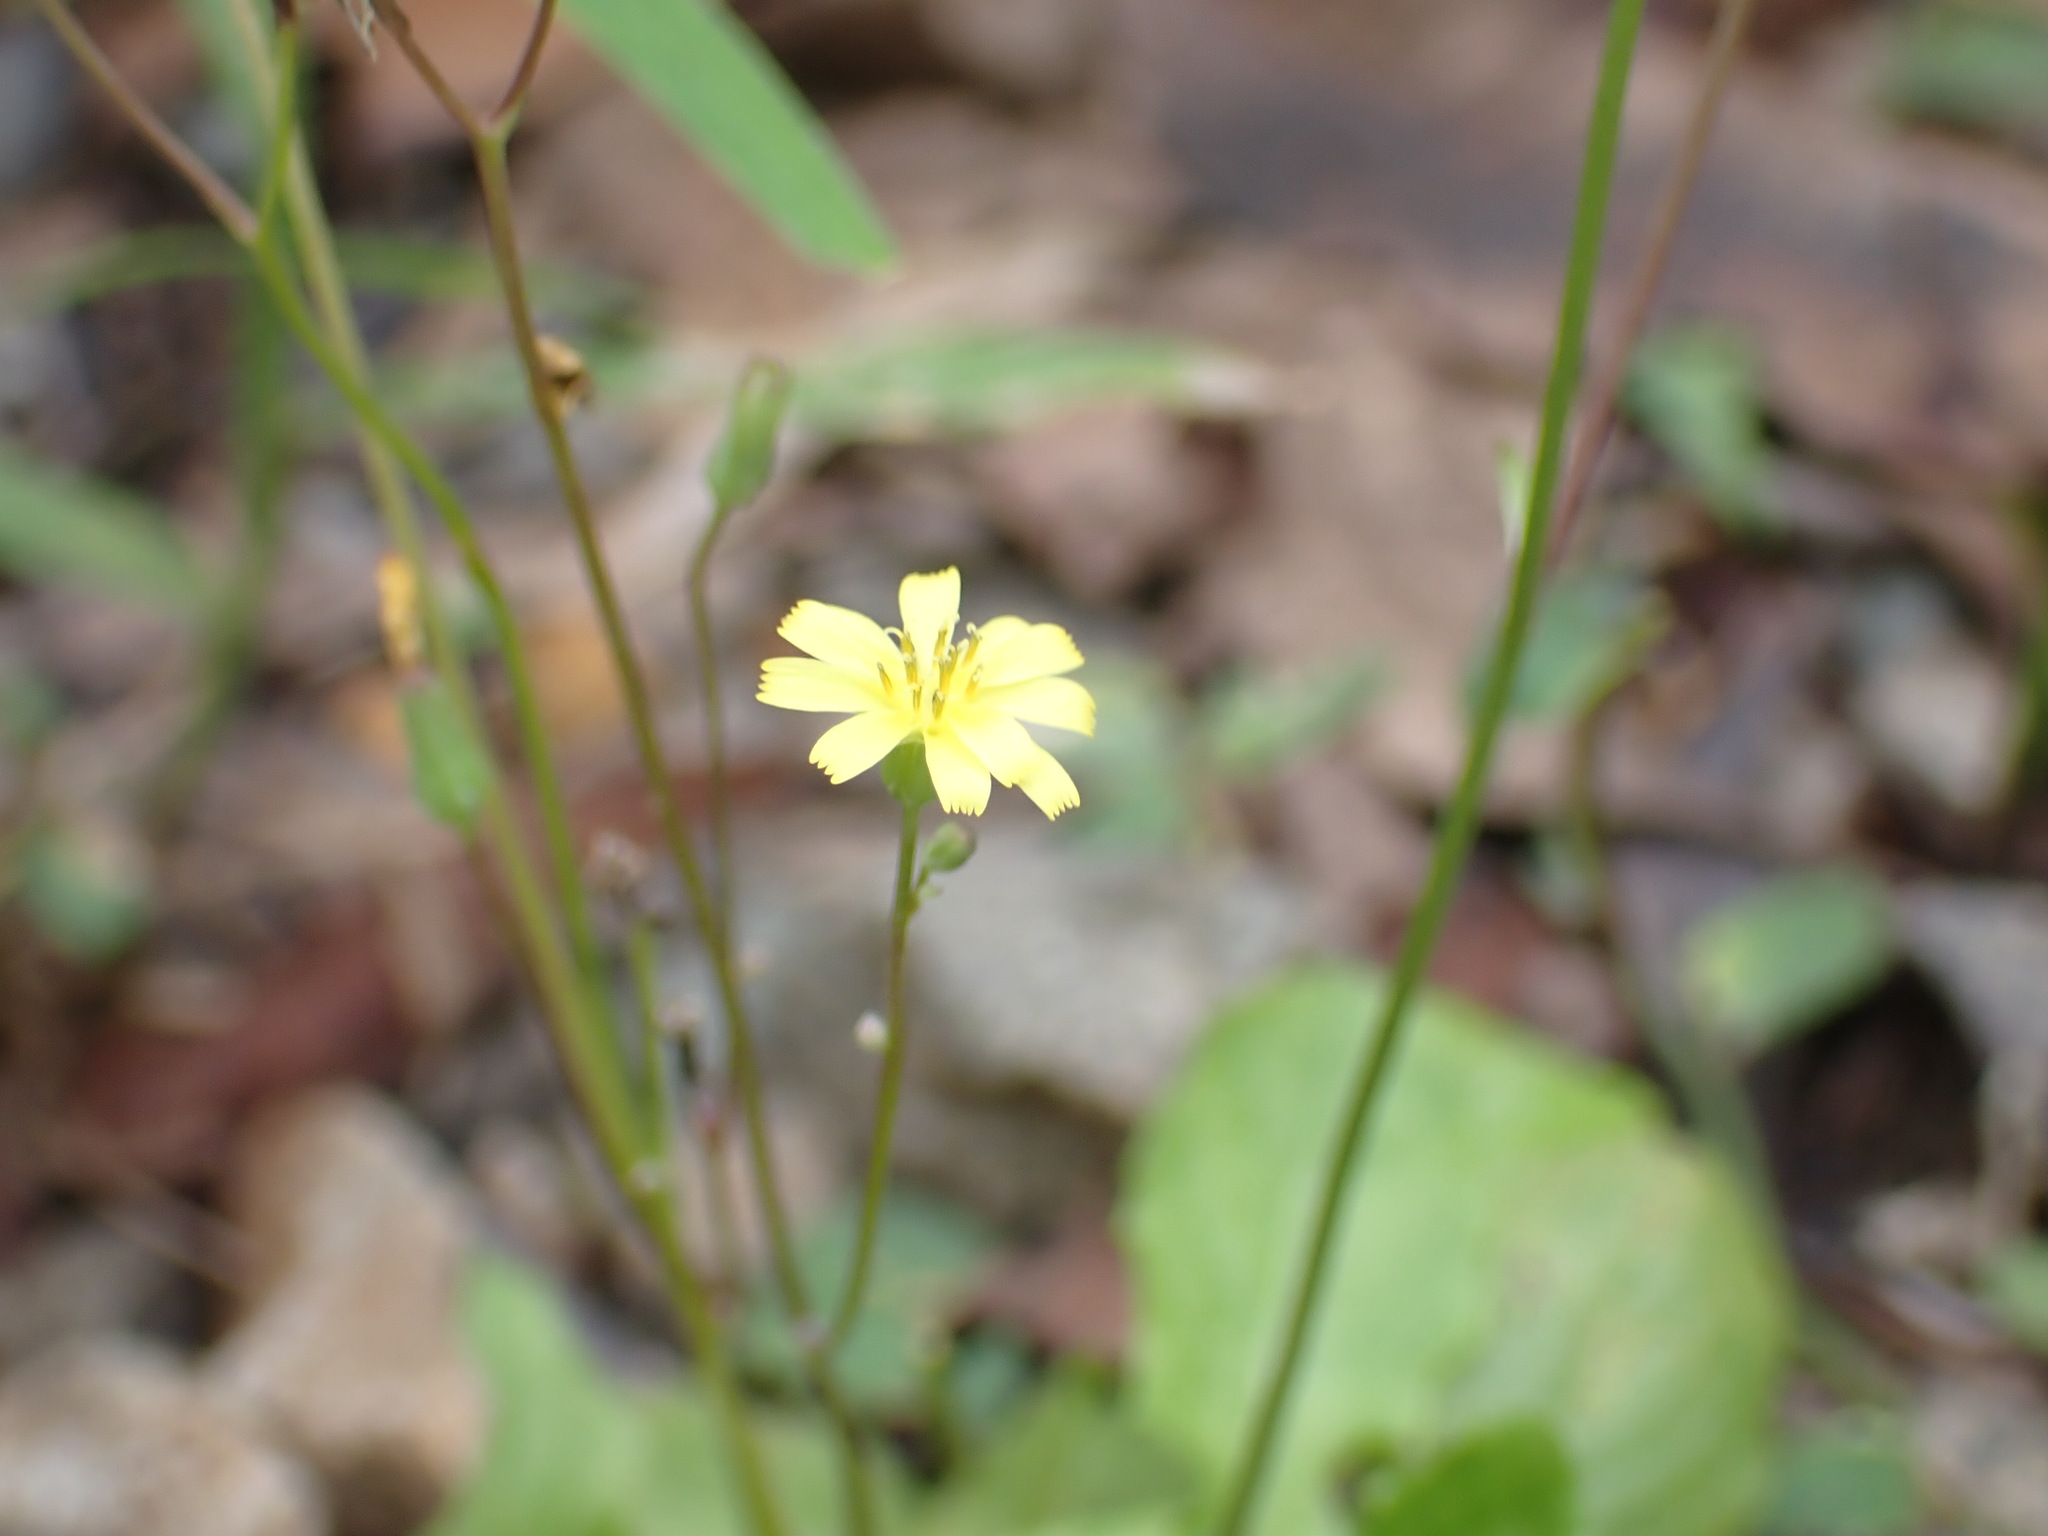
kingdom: Plantae
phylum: Tracheophyta
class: Magnoliopsida
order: Asterales
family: Asteraceae
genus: Youngia
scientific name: Youngia japonica
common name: Oriental false hawksbeard
